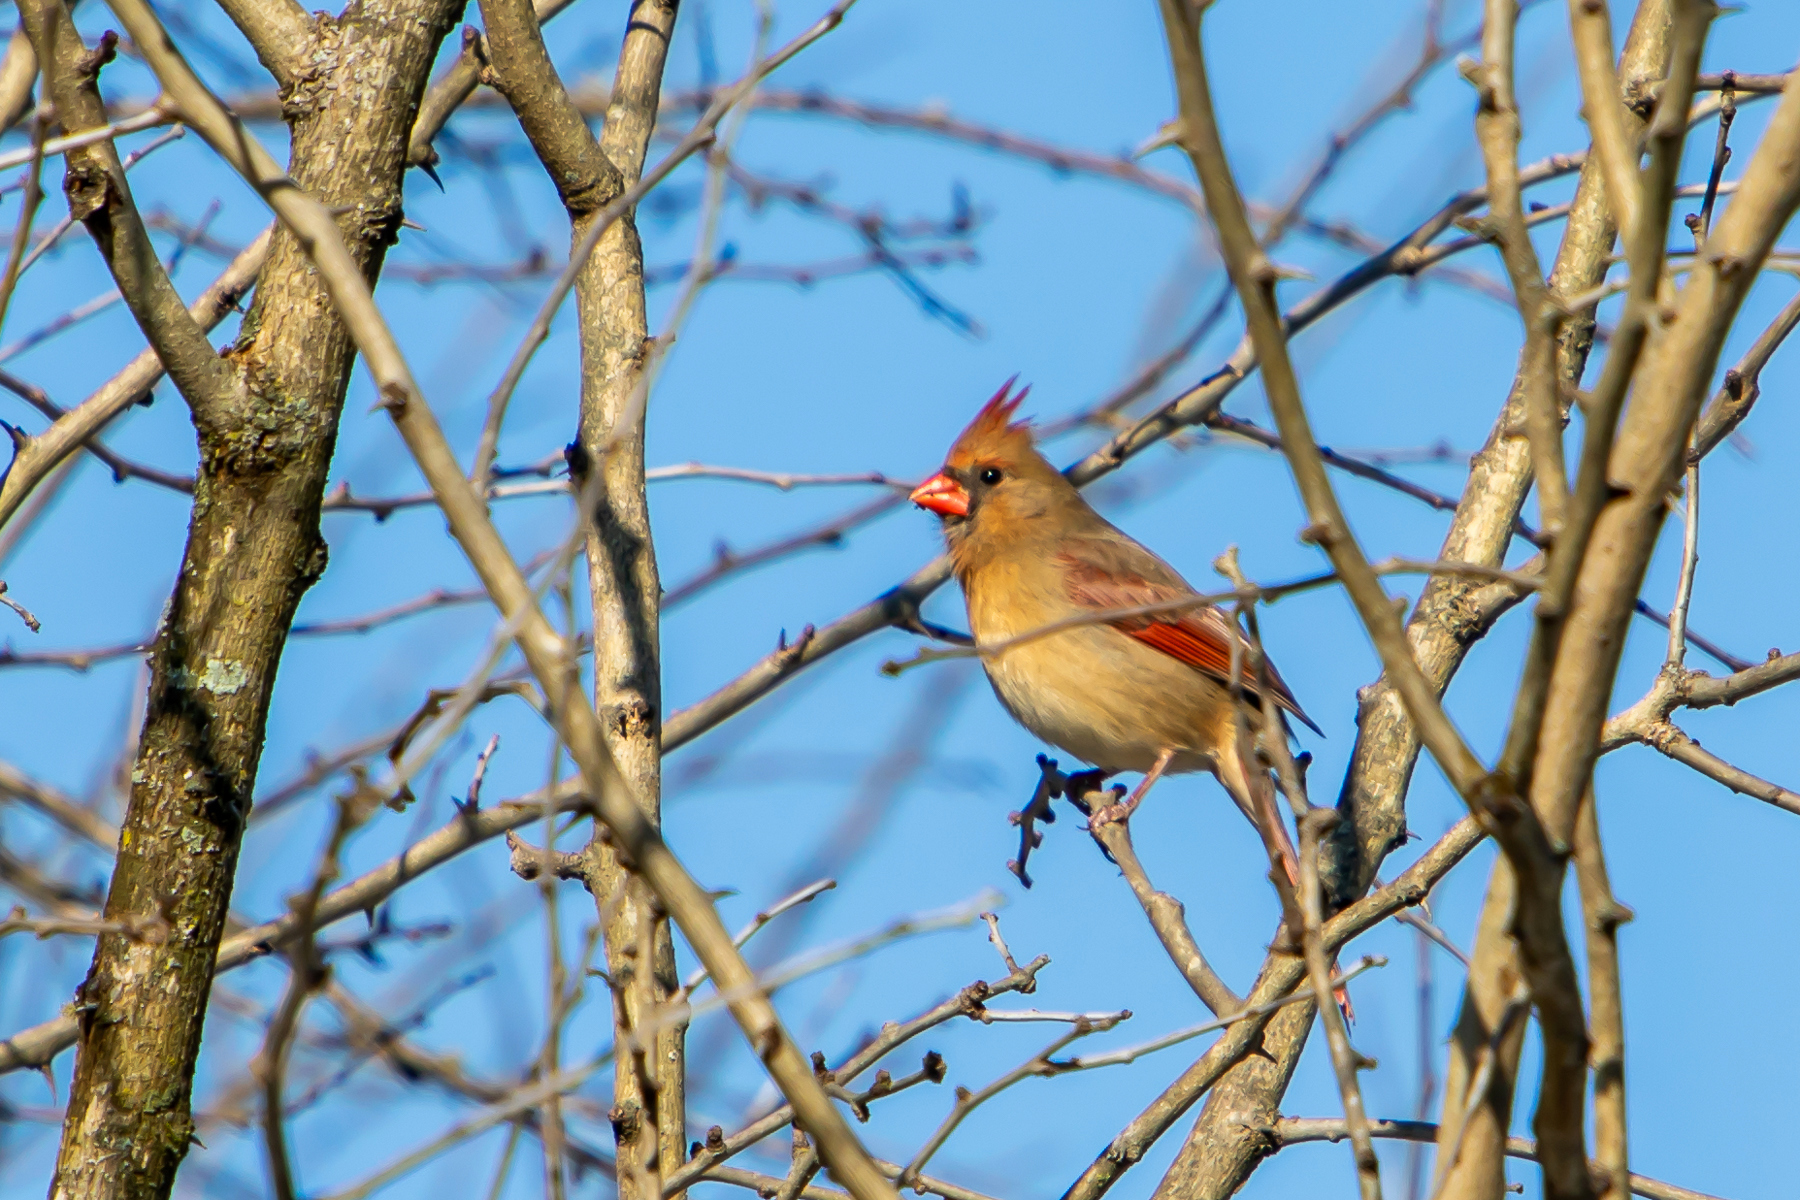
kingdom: Animalia
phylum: Chordata
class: Aves
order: Passeriformes
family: Cardinalidae
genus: Cardinalis
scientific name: Cardinalis cardinalis
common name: Northern cardinal
